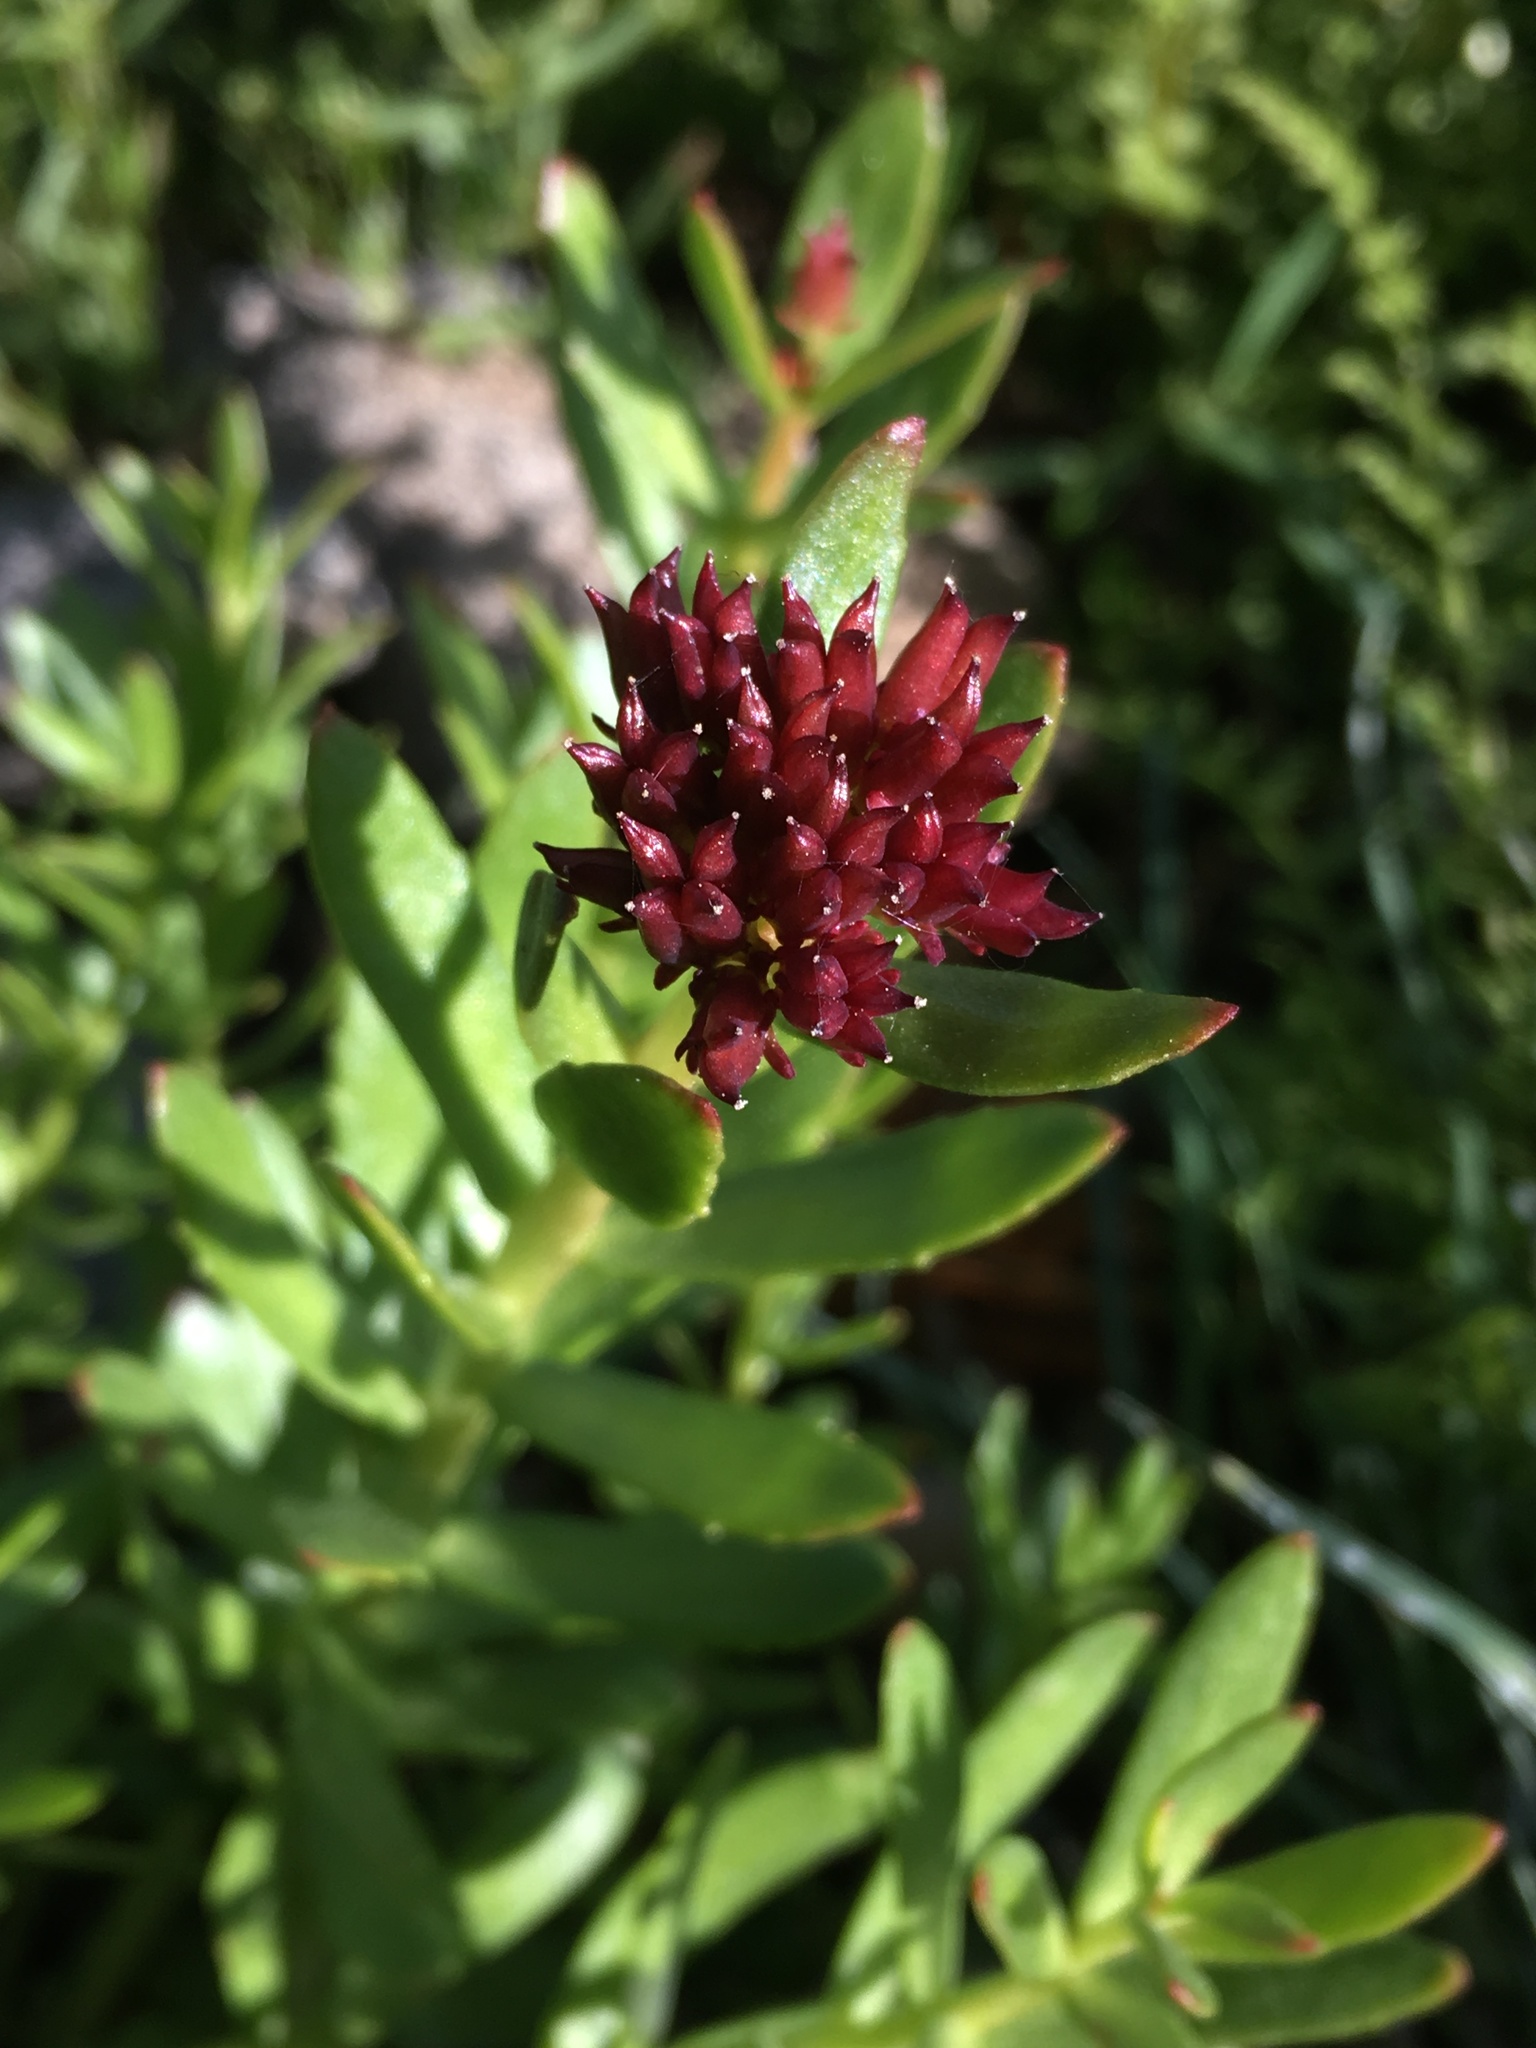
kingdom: Plantae
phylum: Tracheophyta
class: Magnoliopsida
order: Saxifragales
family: Crassulaceae
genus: Rhodiola
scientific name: Rhodiola integrifolia
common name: Western roseroot
